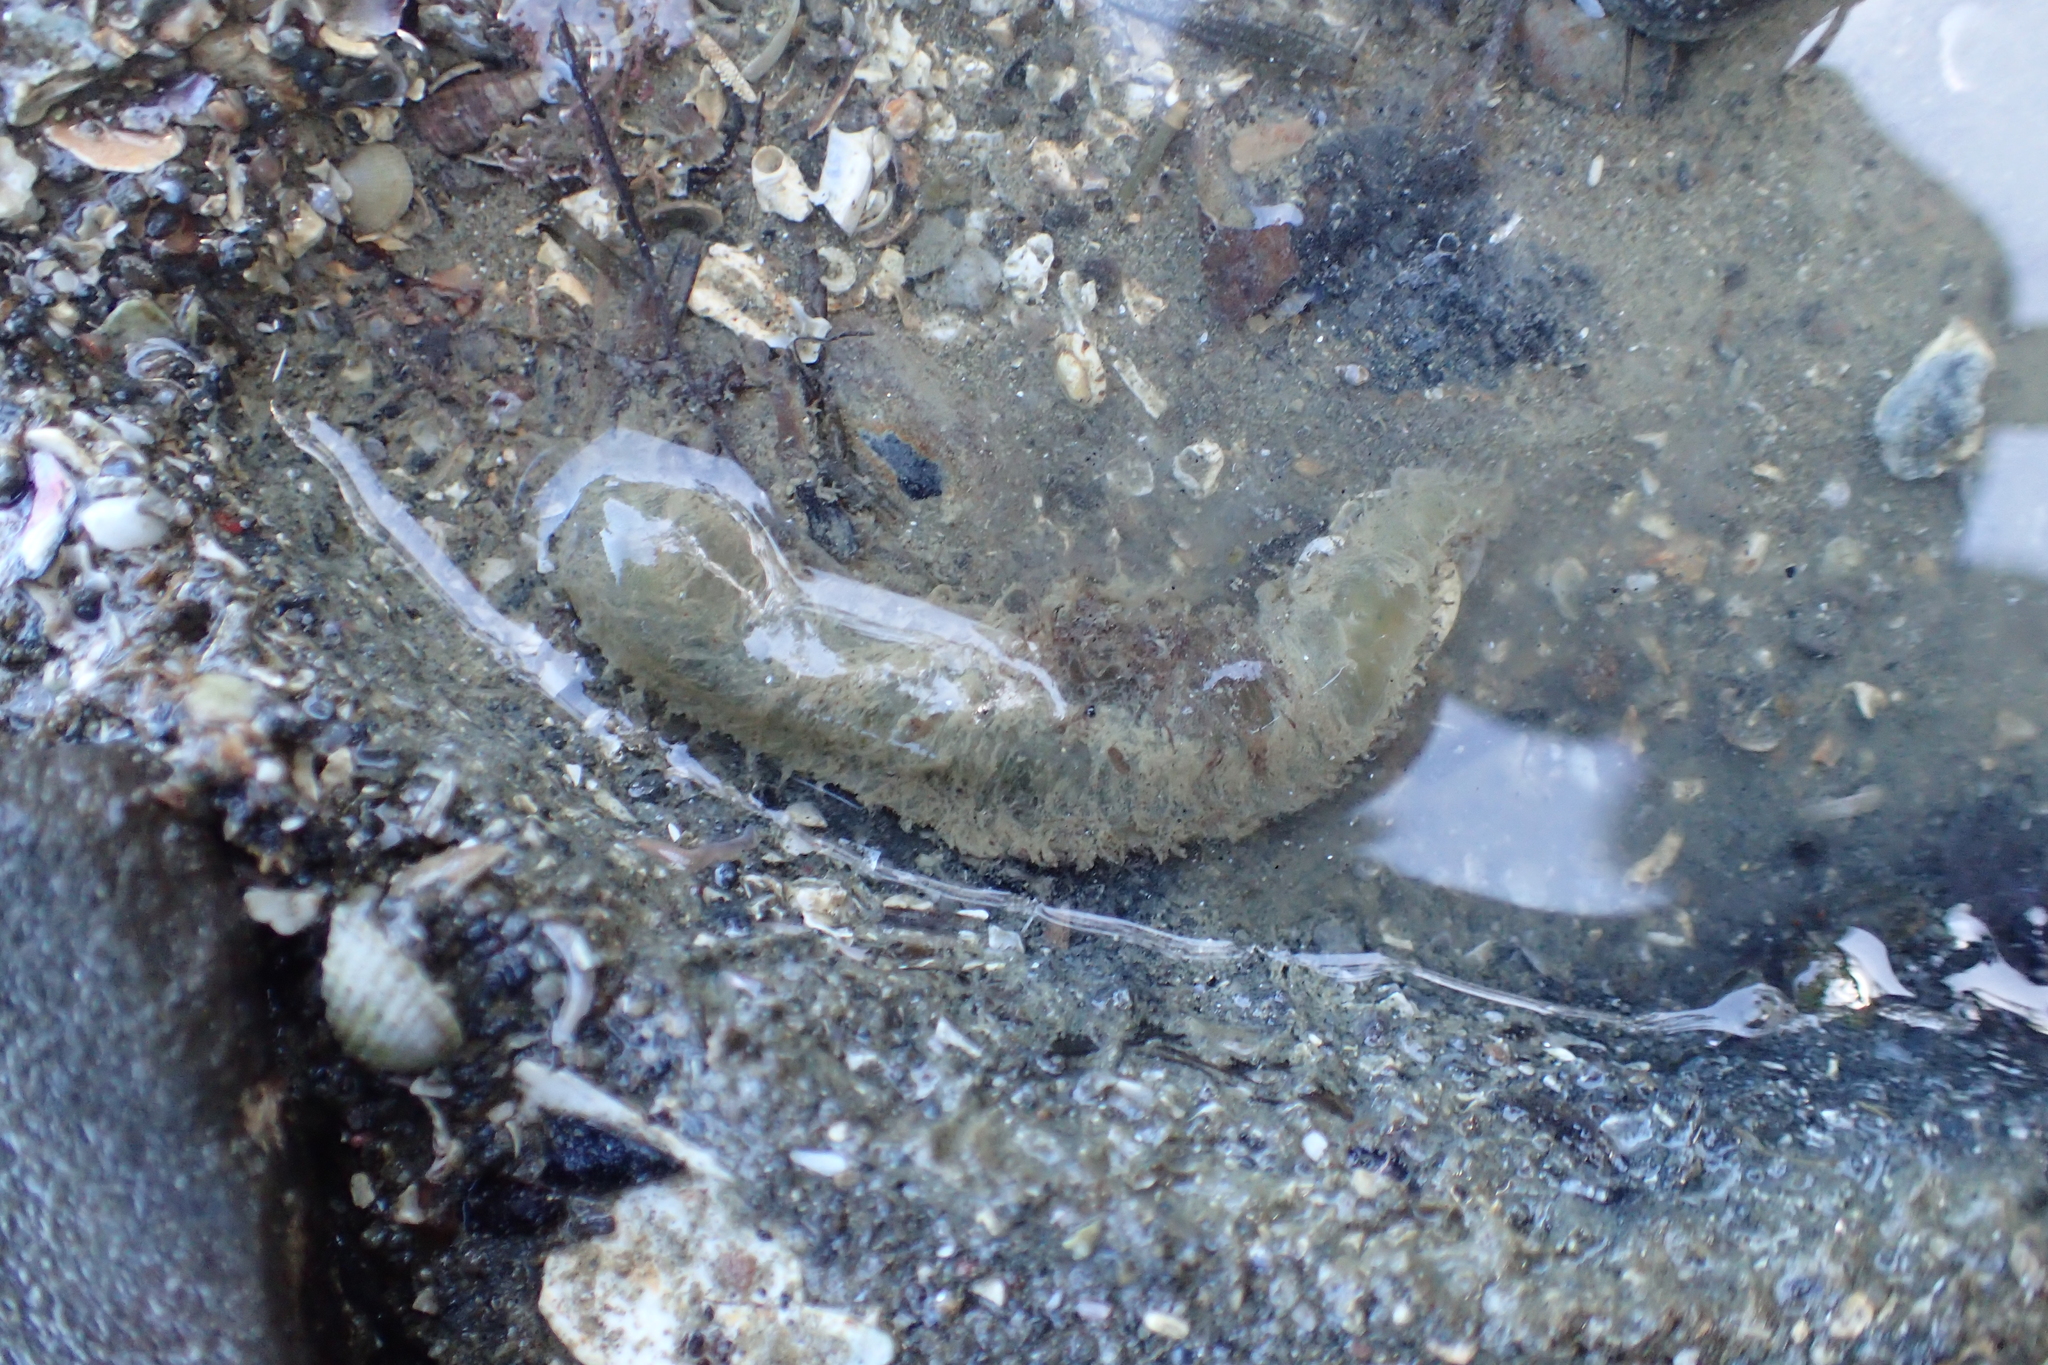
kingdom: Animalia
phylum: Annelida
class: Polychaeta
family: Flabelligeridae
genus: Flabelligera
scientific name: Flabelligera bicolor
